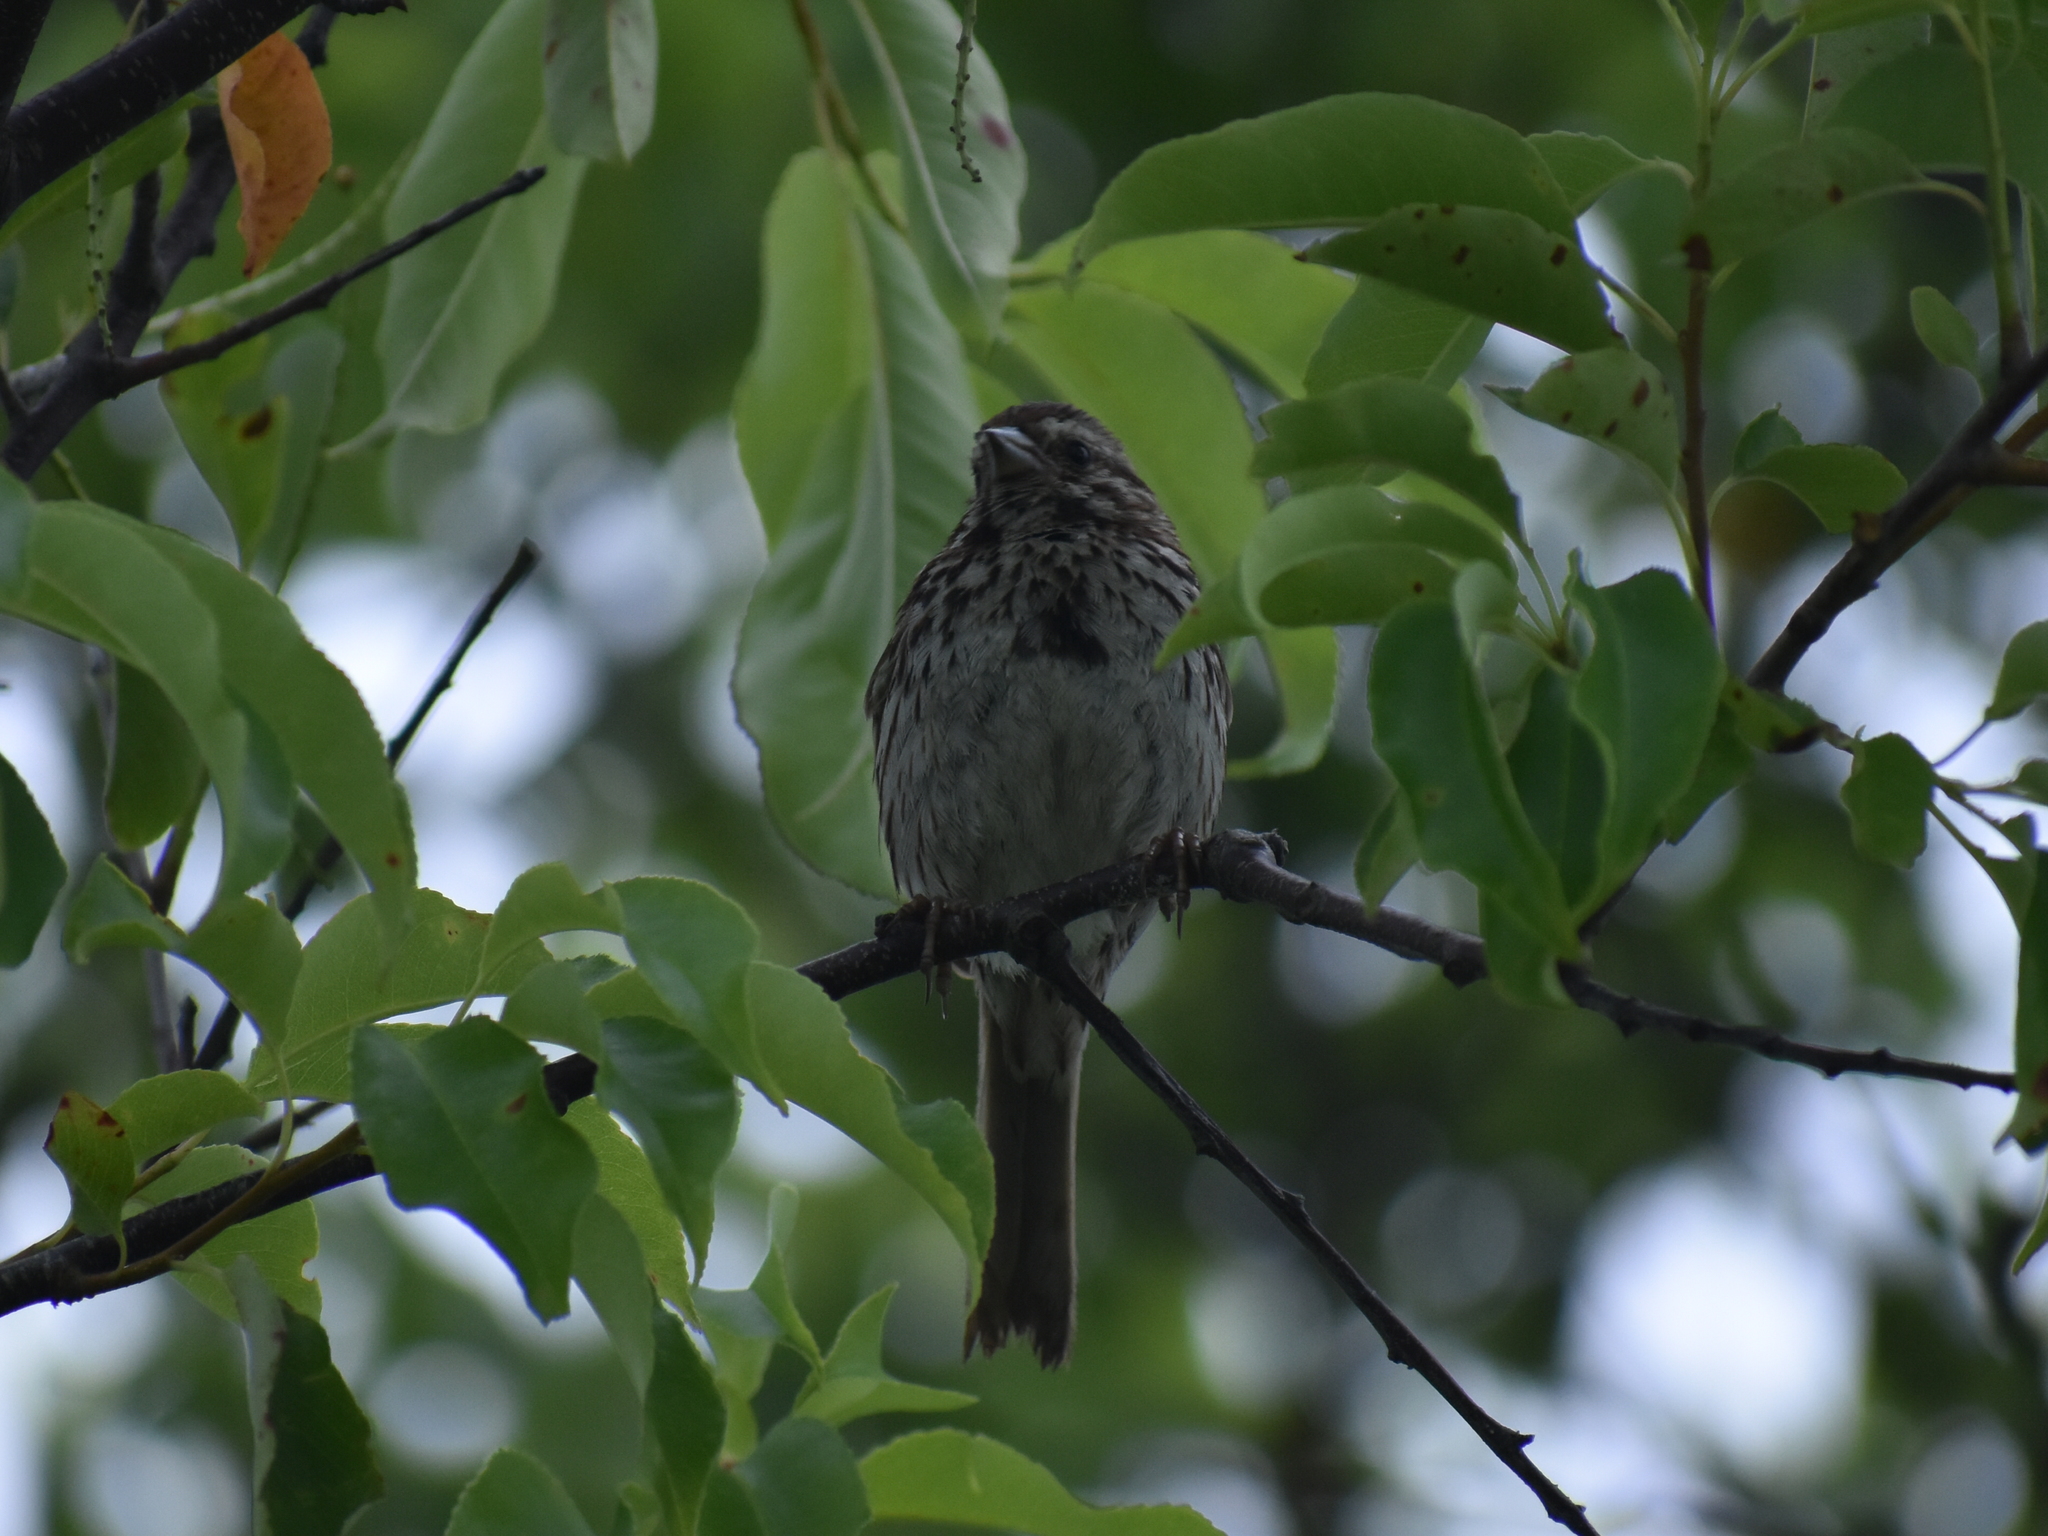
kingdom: Animalia
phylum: Chordata
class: Aves
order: Passeriformes
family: Passerellidae
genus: Melospiza
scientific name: Melospiza melodia
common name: Song sparrow
